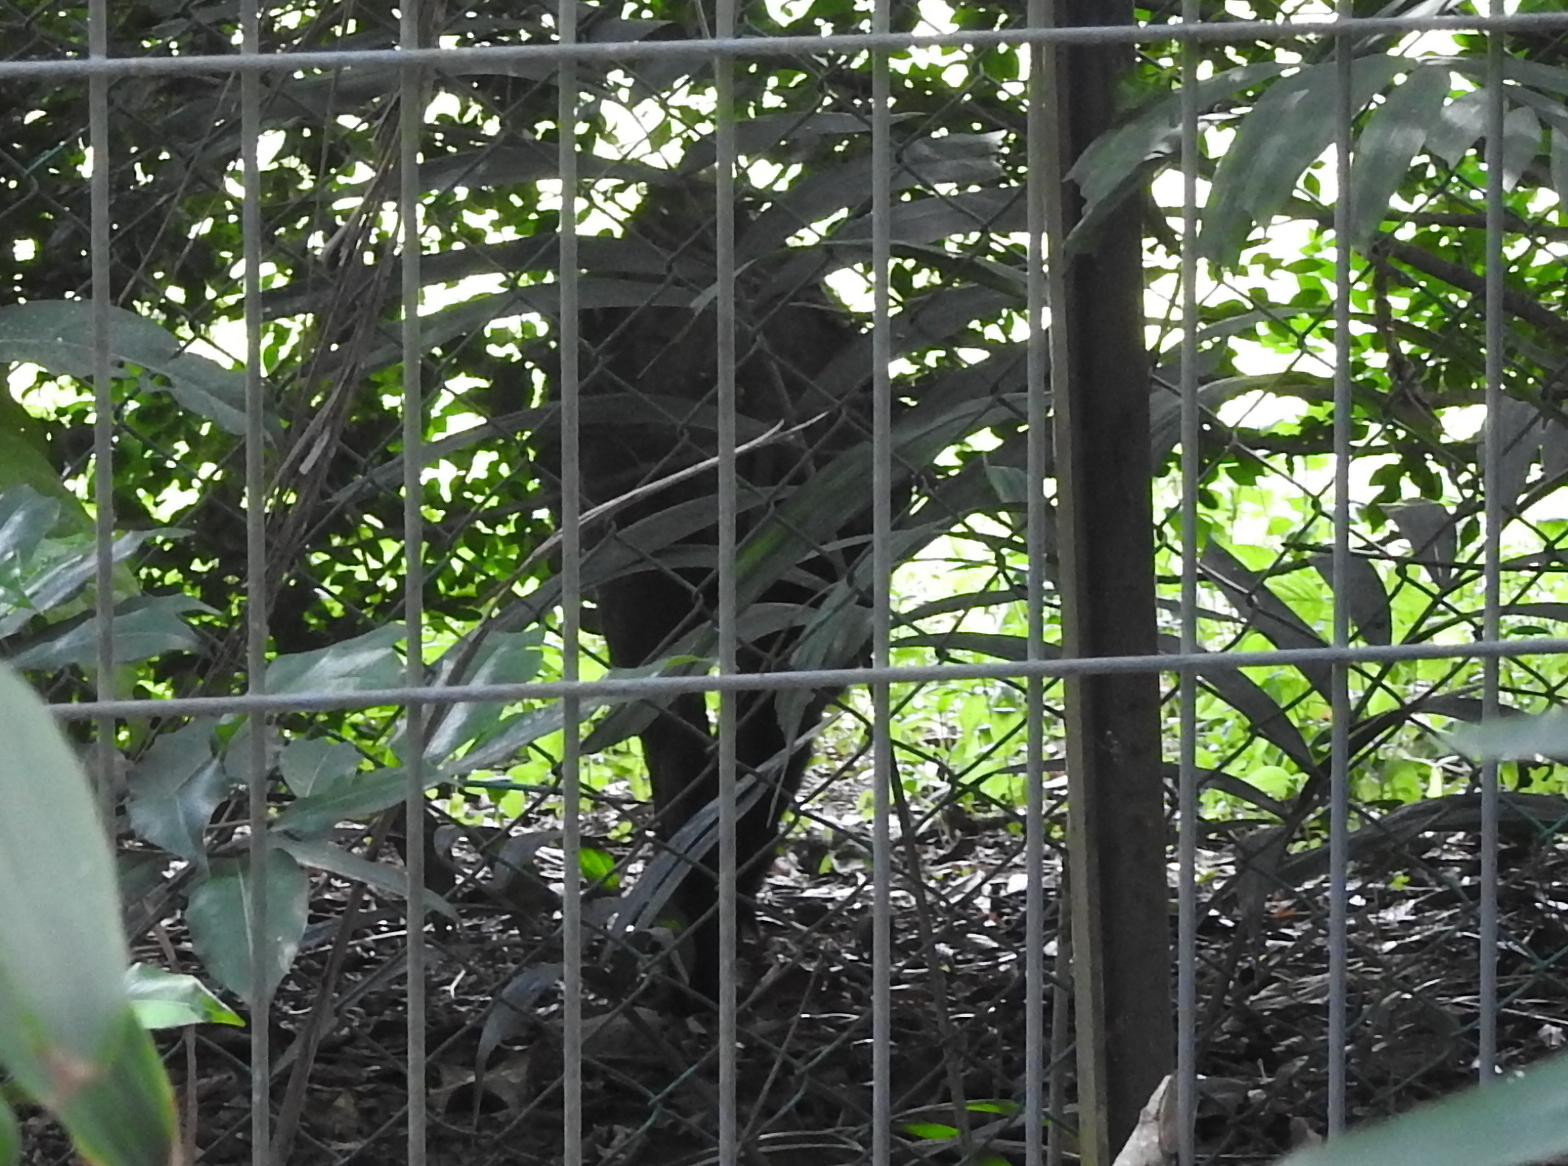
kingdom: Animalia
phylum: Chordata
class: Mammalia
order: Artiodactyla
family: Suidae
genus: Sus
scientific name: Sus scrofa
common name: Wild boar
